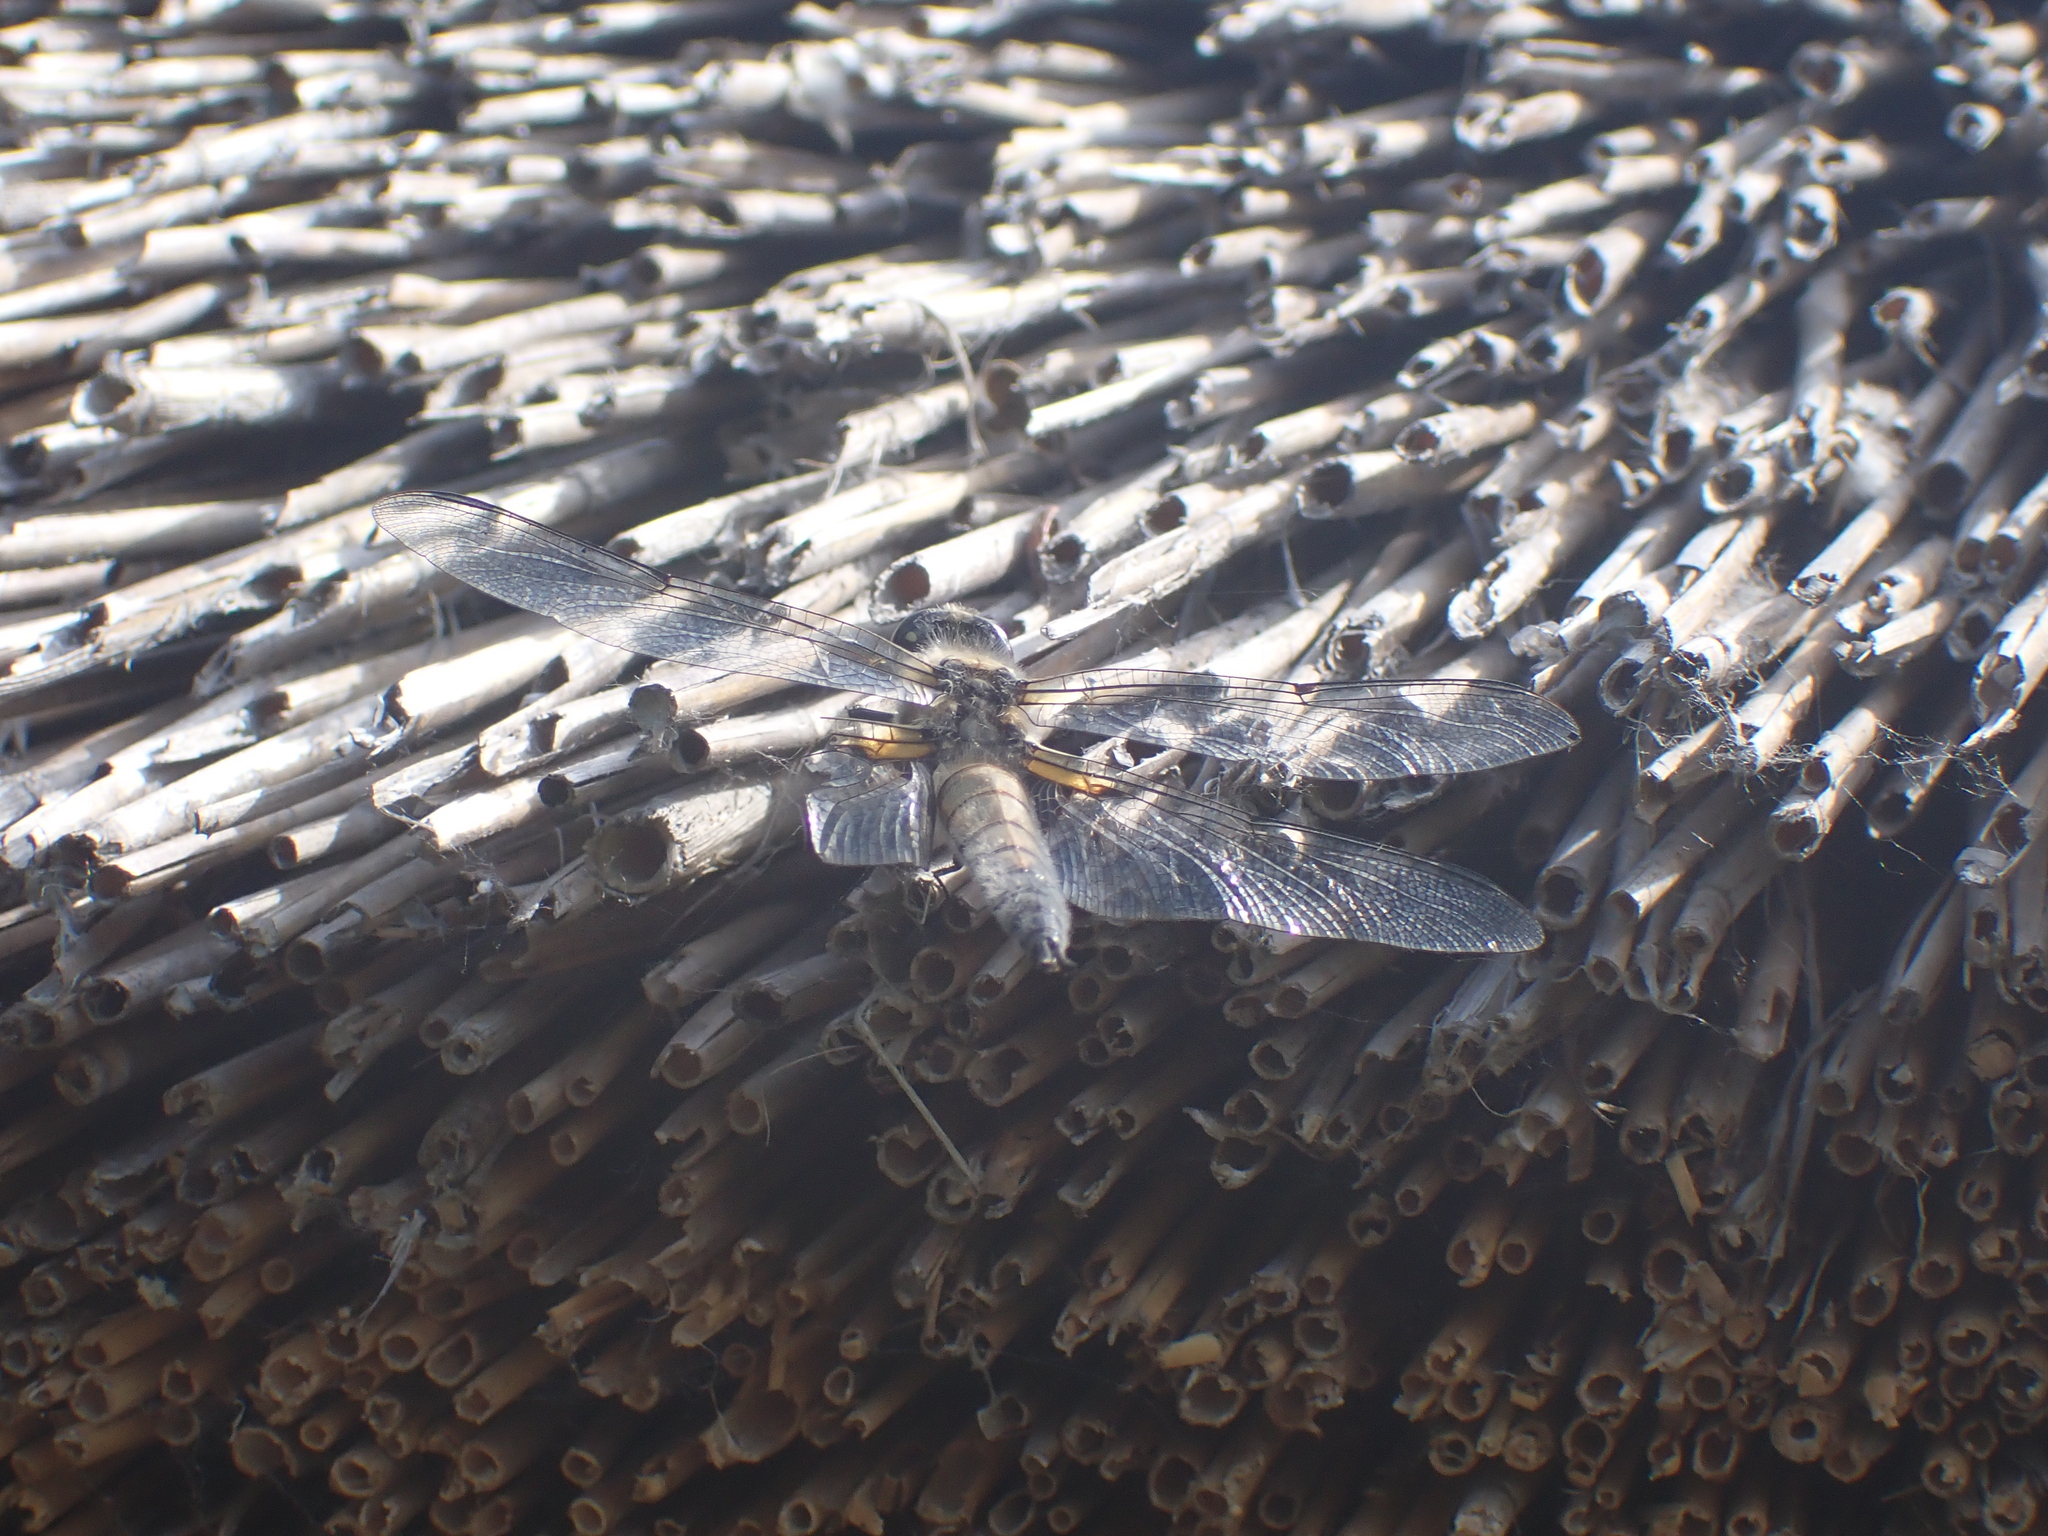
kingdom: Animalia
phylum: Arthropoda
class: Insecta
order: Odonata
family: Libellulidae
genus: Libellula
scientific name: Libellula quadrimaculata
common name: Four-spotted chaser
